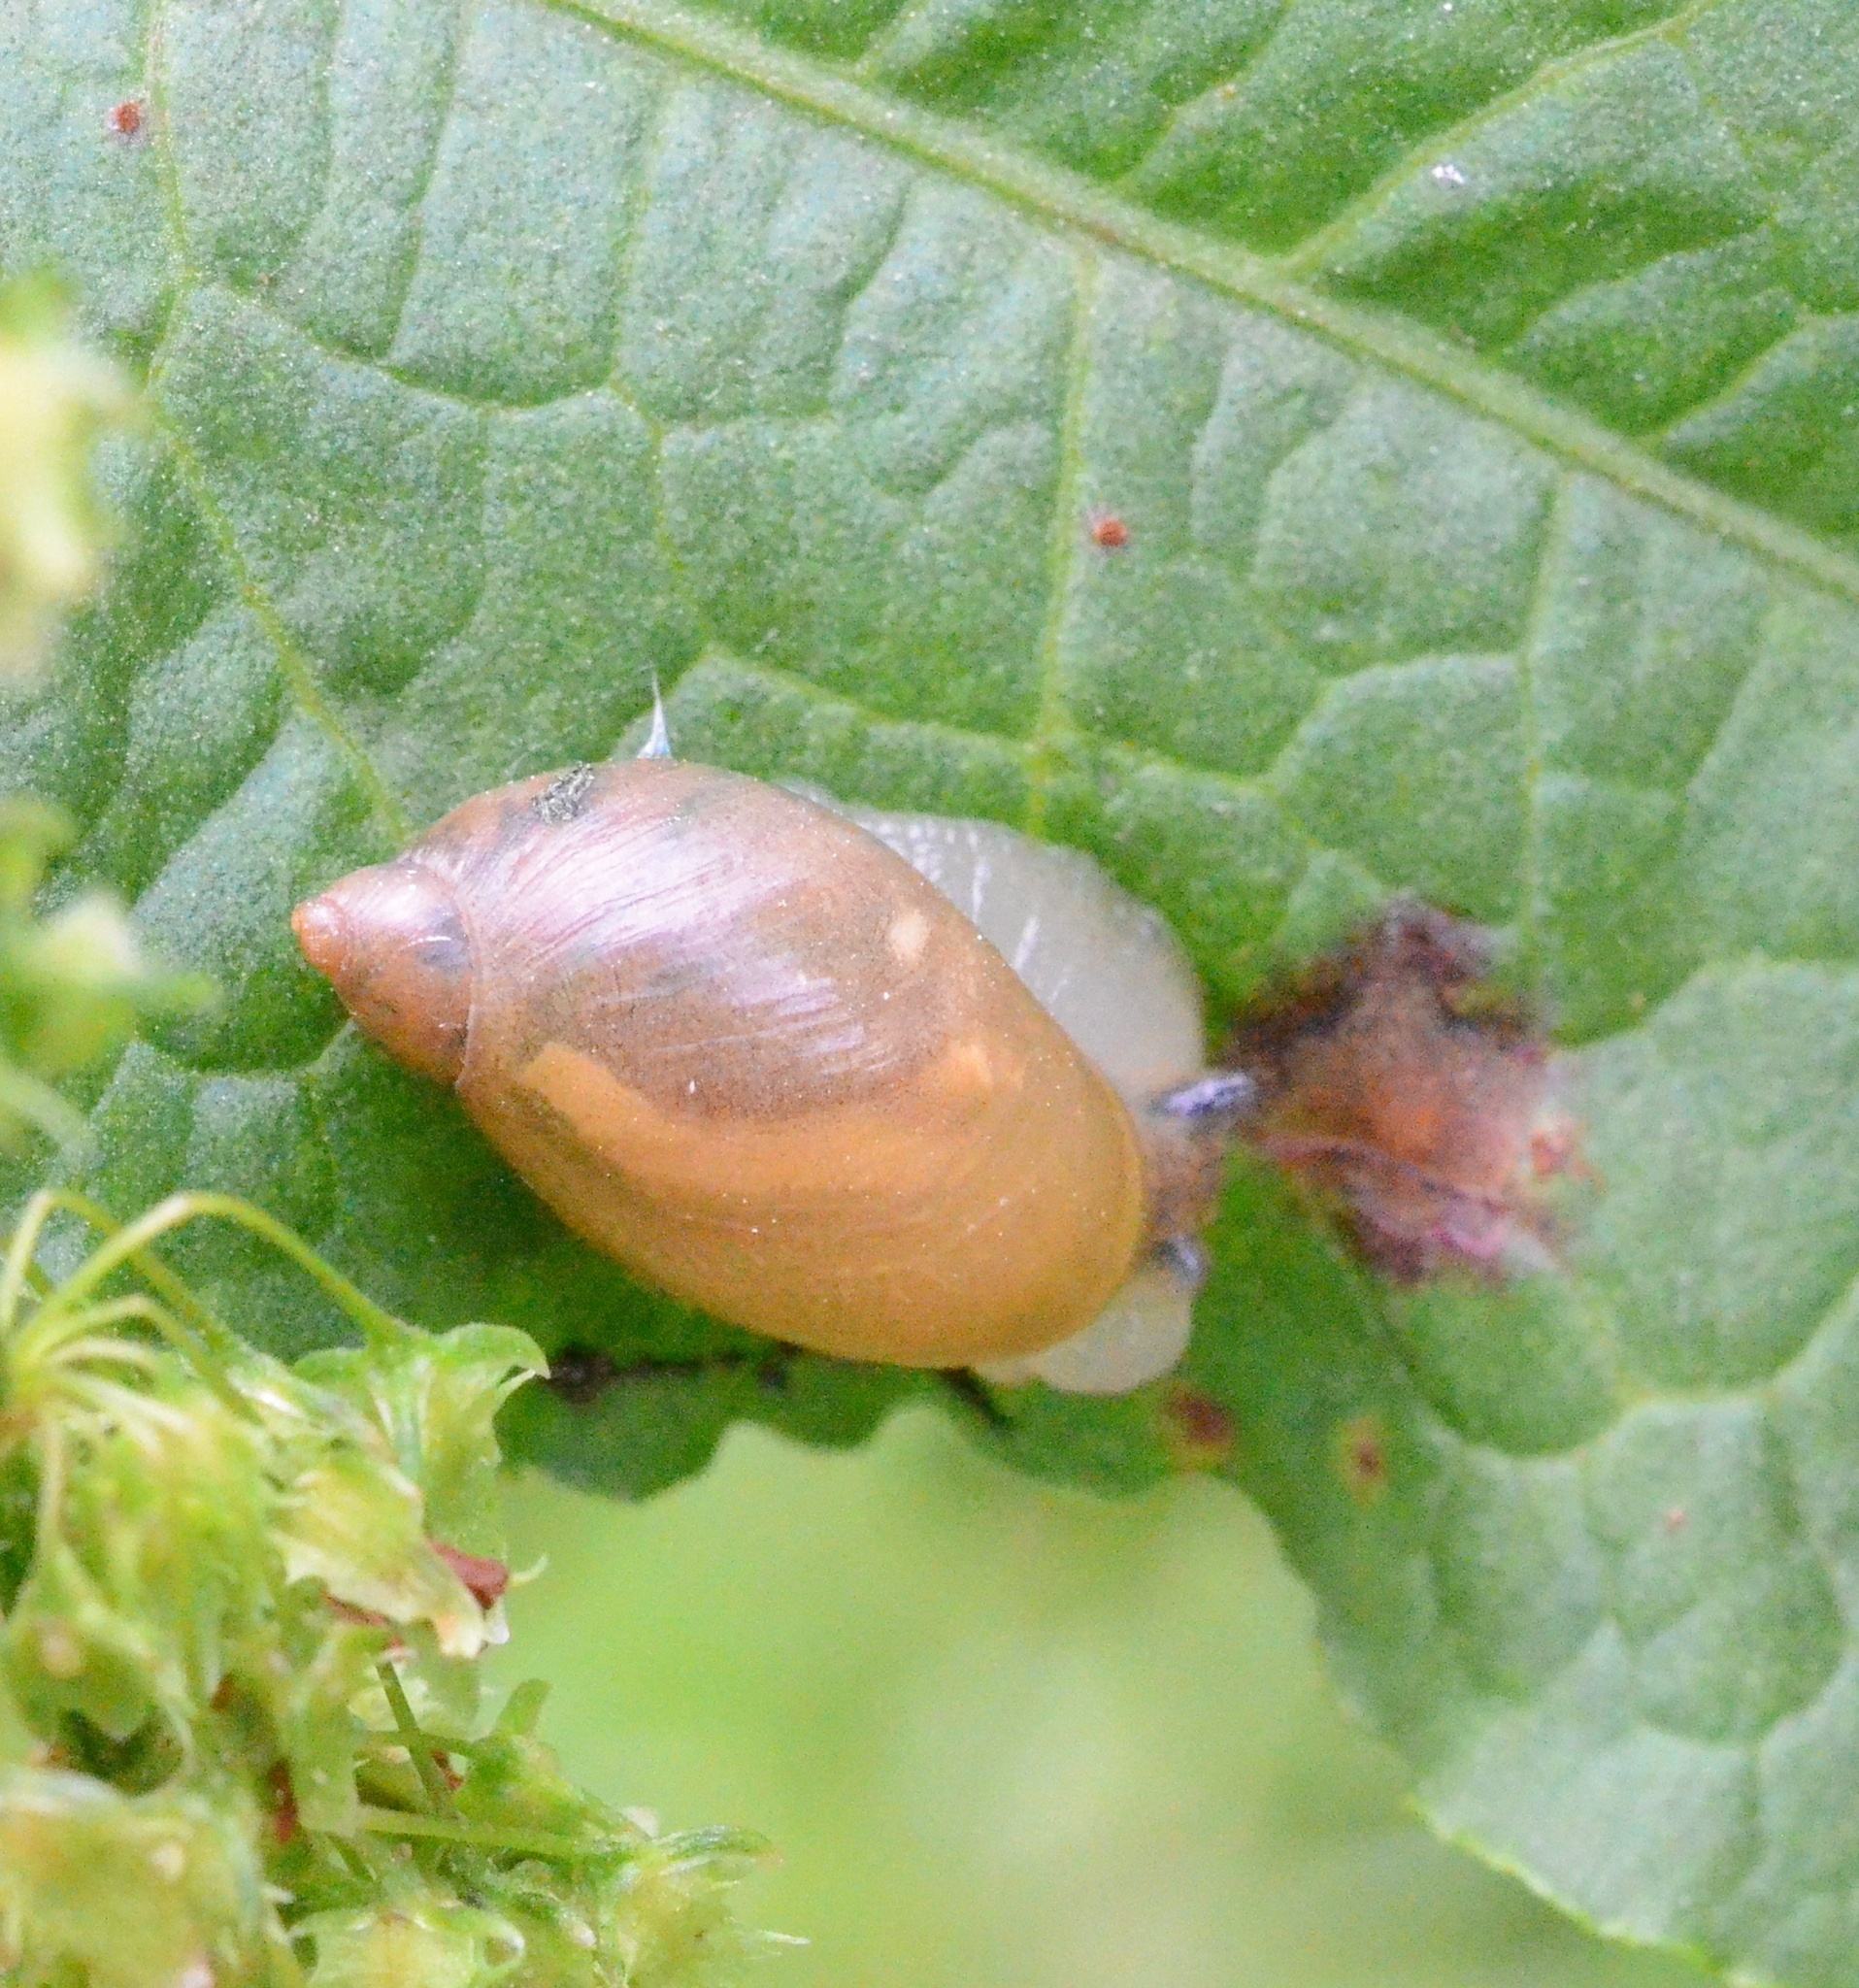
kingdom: Animalia
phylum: Mollusca
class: Gastropoda
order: Stylommatophora
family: Succineidae
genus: Succinea
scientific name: Succinea putris
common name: European ambersnail
